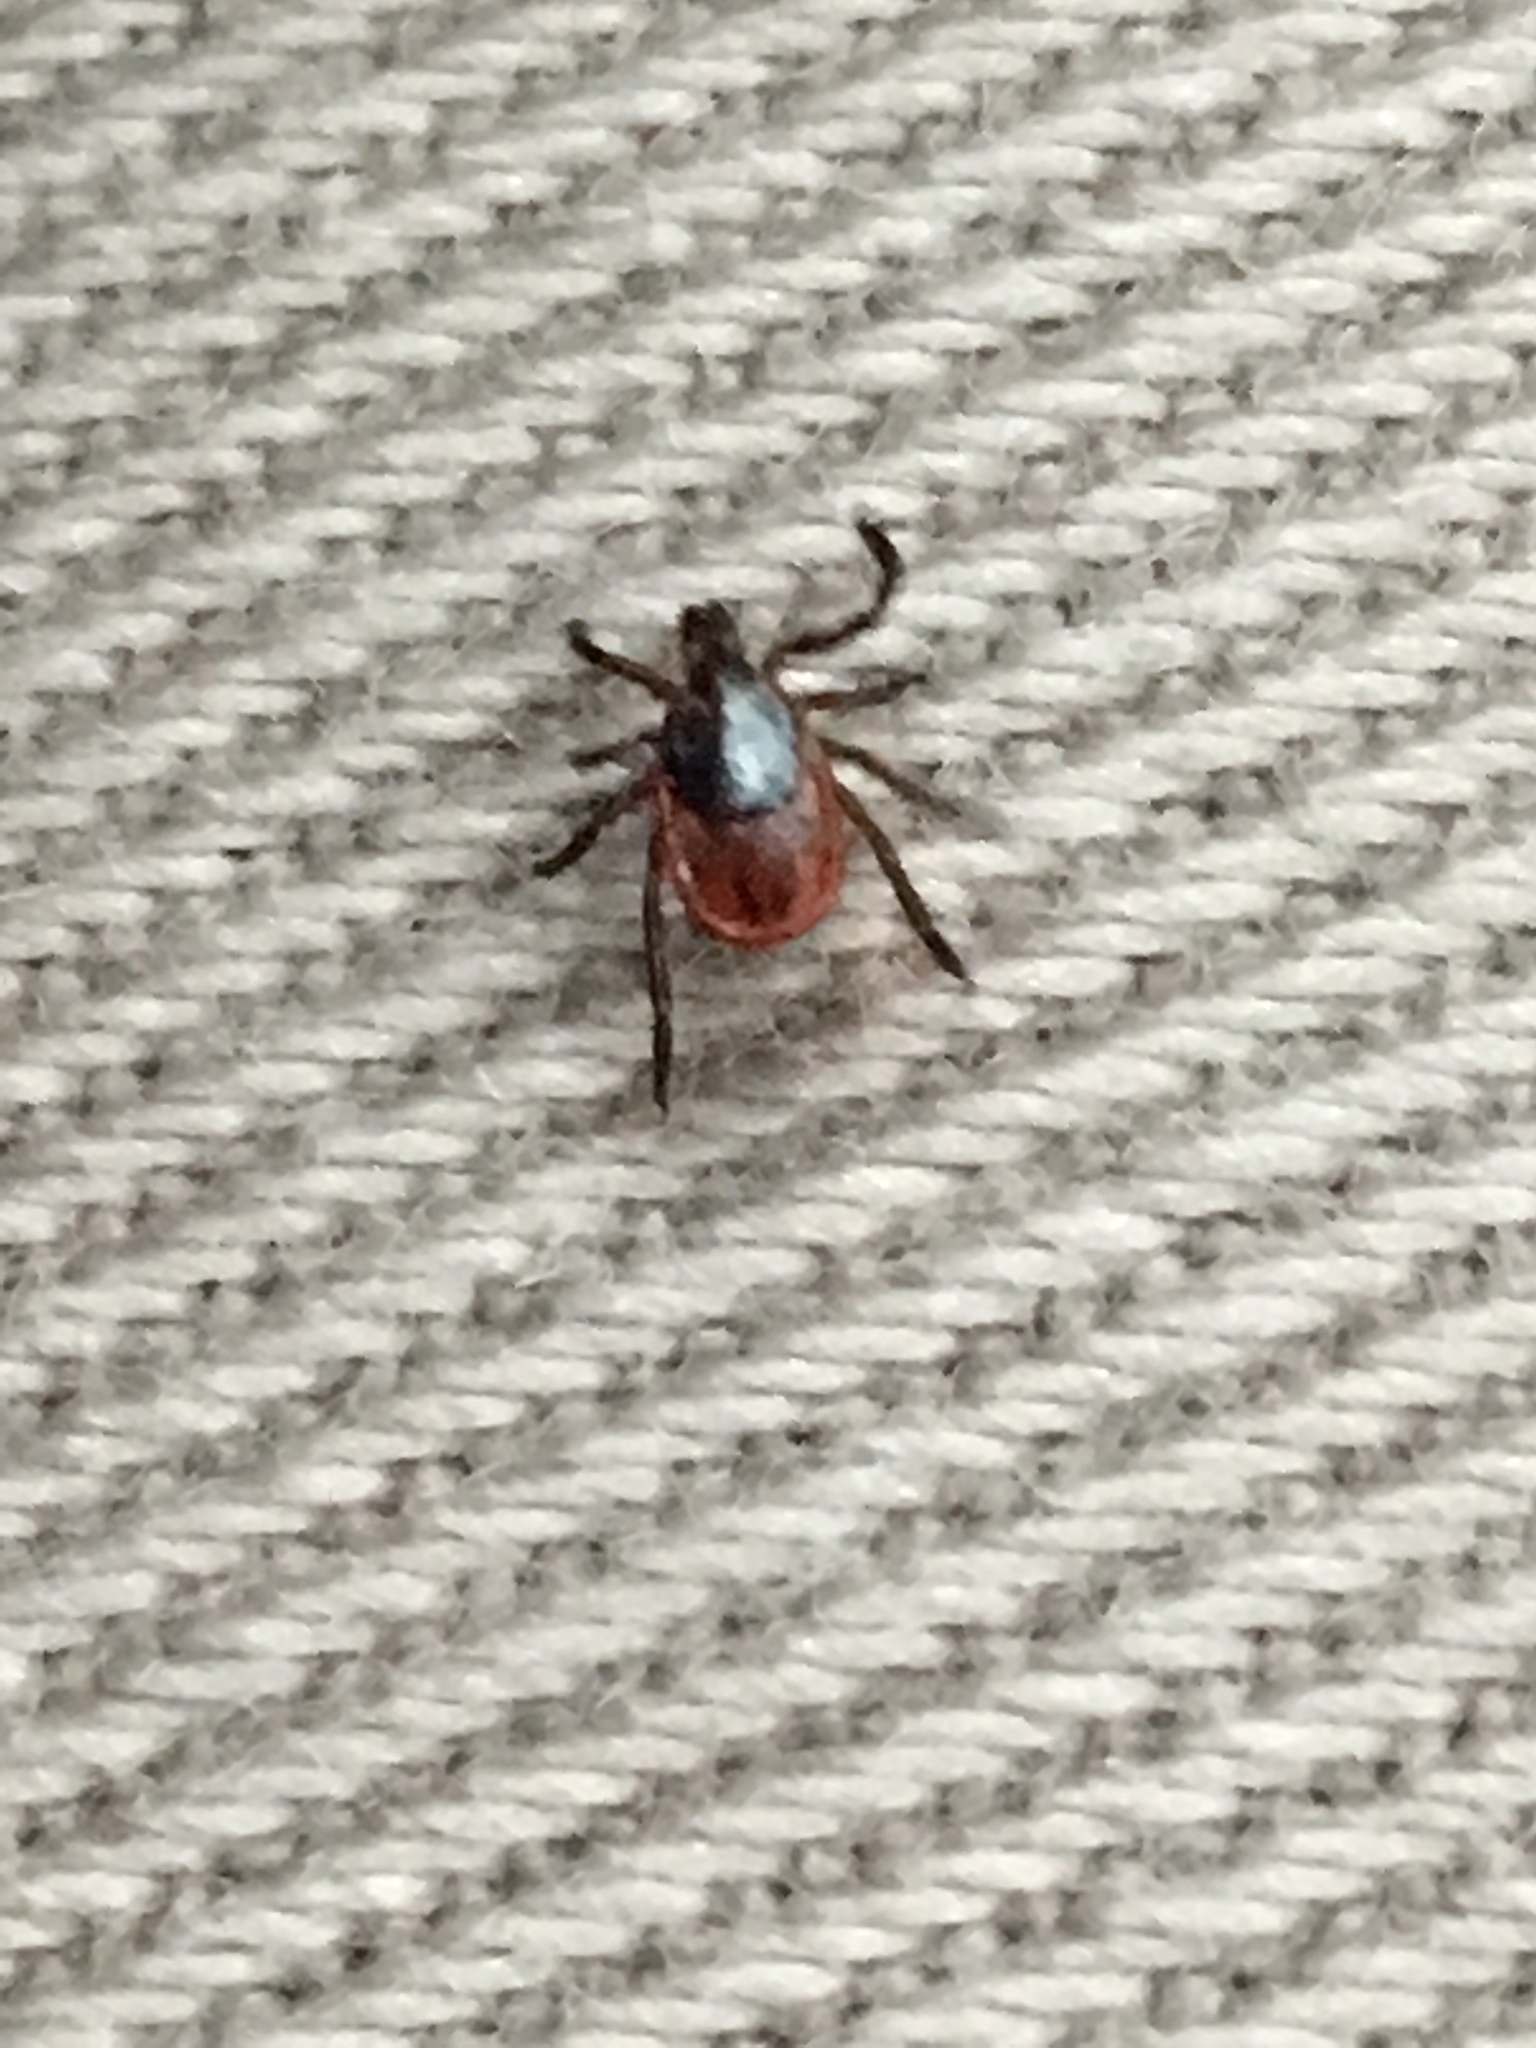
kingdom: Animalia
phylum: Arthropoda
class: Arachnida
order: Ixodida
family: Ixodidae
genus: Ixodes
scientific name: Ixodes scapularis
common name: Black legged tick
